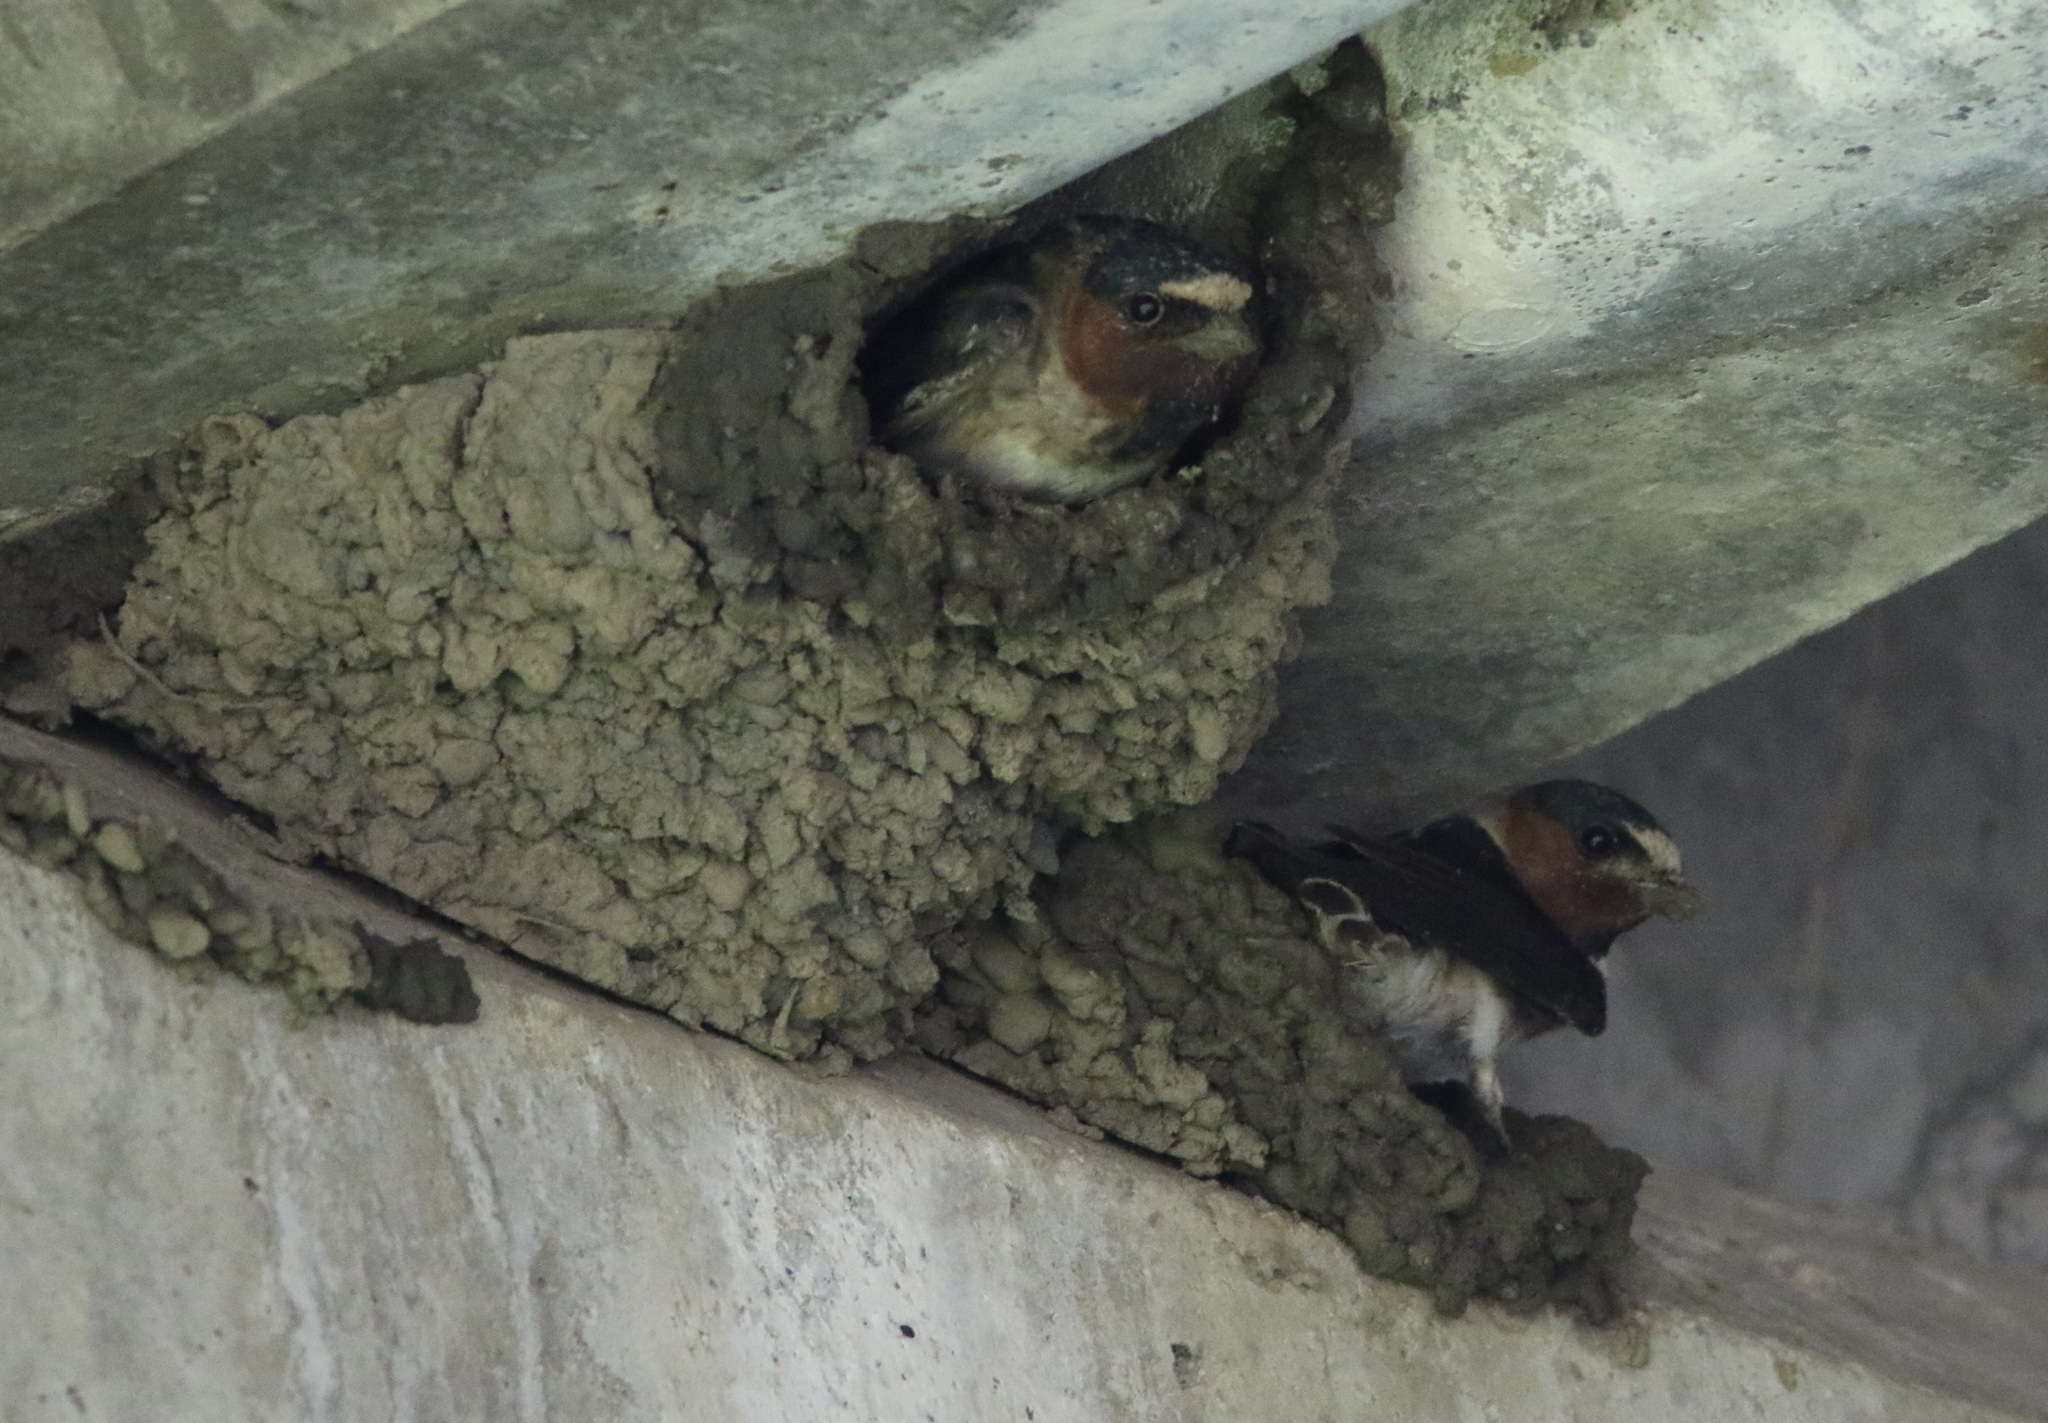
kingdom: Animalia
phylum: Chordata
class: Aves
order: Passeriformes
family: Hirundinidae
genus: Petrochelidon
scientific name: Petrochelidon pyrrhonota
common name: American cliff swallow
